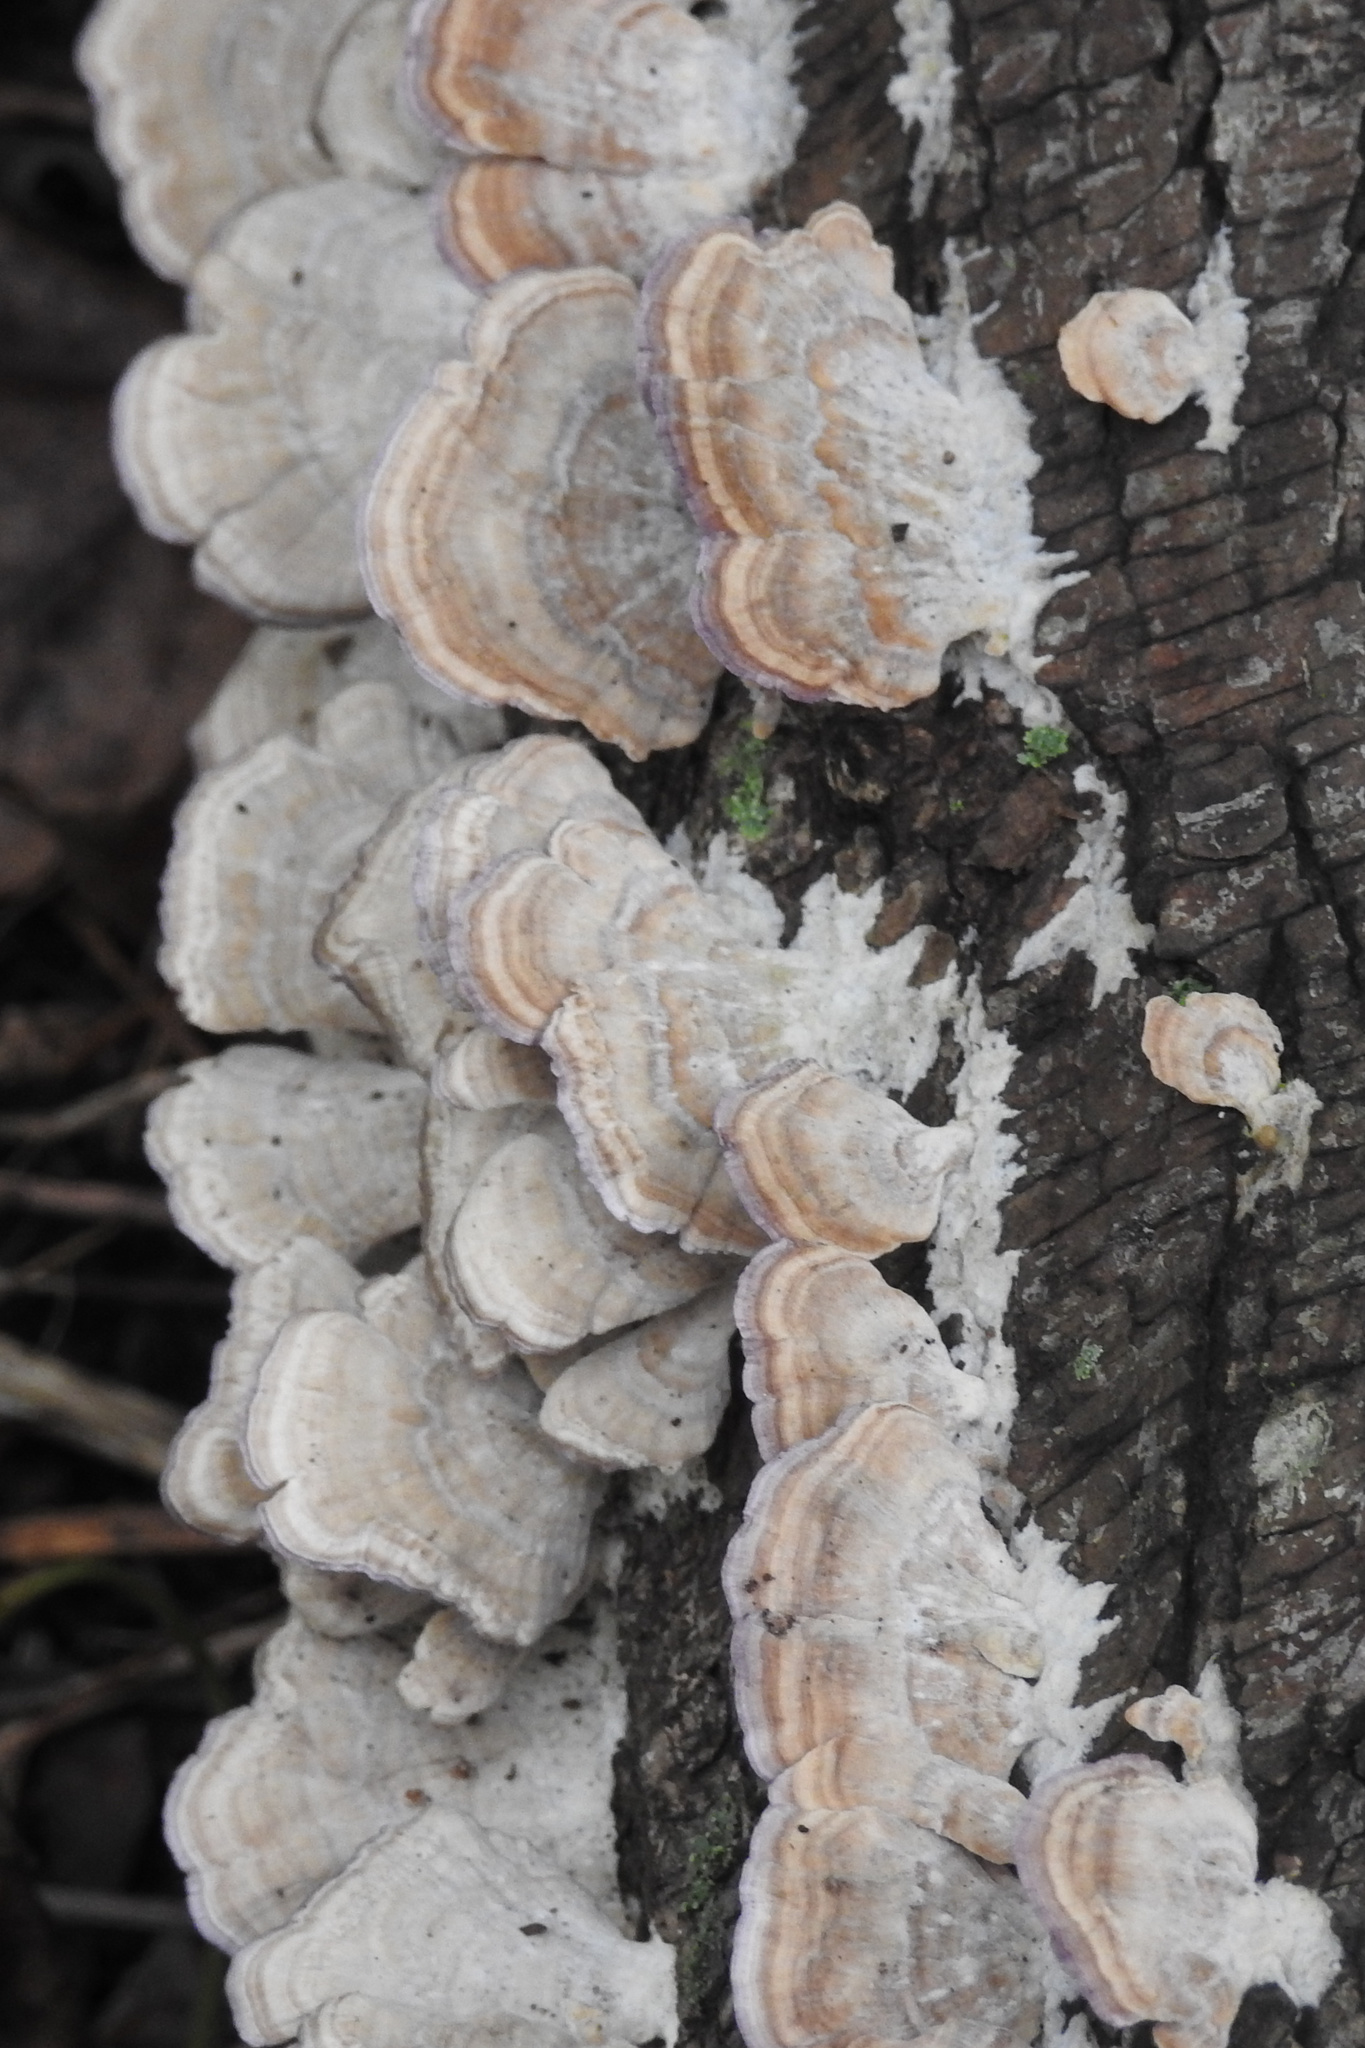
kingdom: Fungi
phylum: Basidiomycota
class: Agaricomycetes
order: Hymenochaetales
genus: Trichaptum
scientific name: Trichaptum biforme
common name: Violet-toothed polypore
